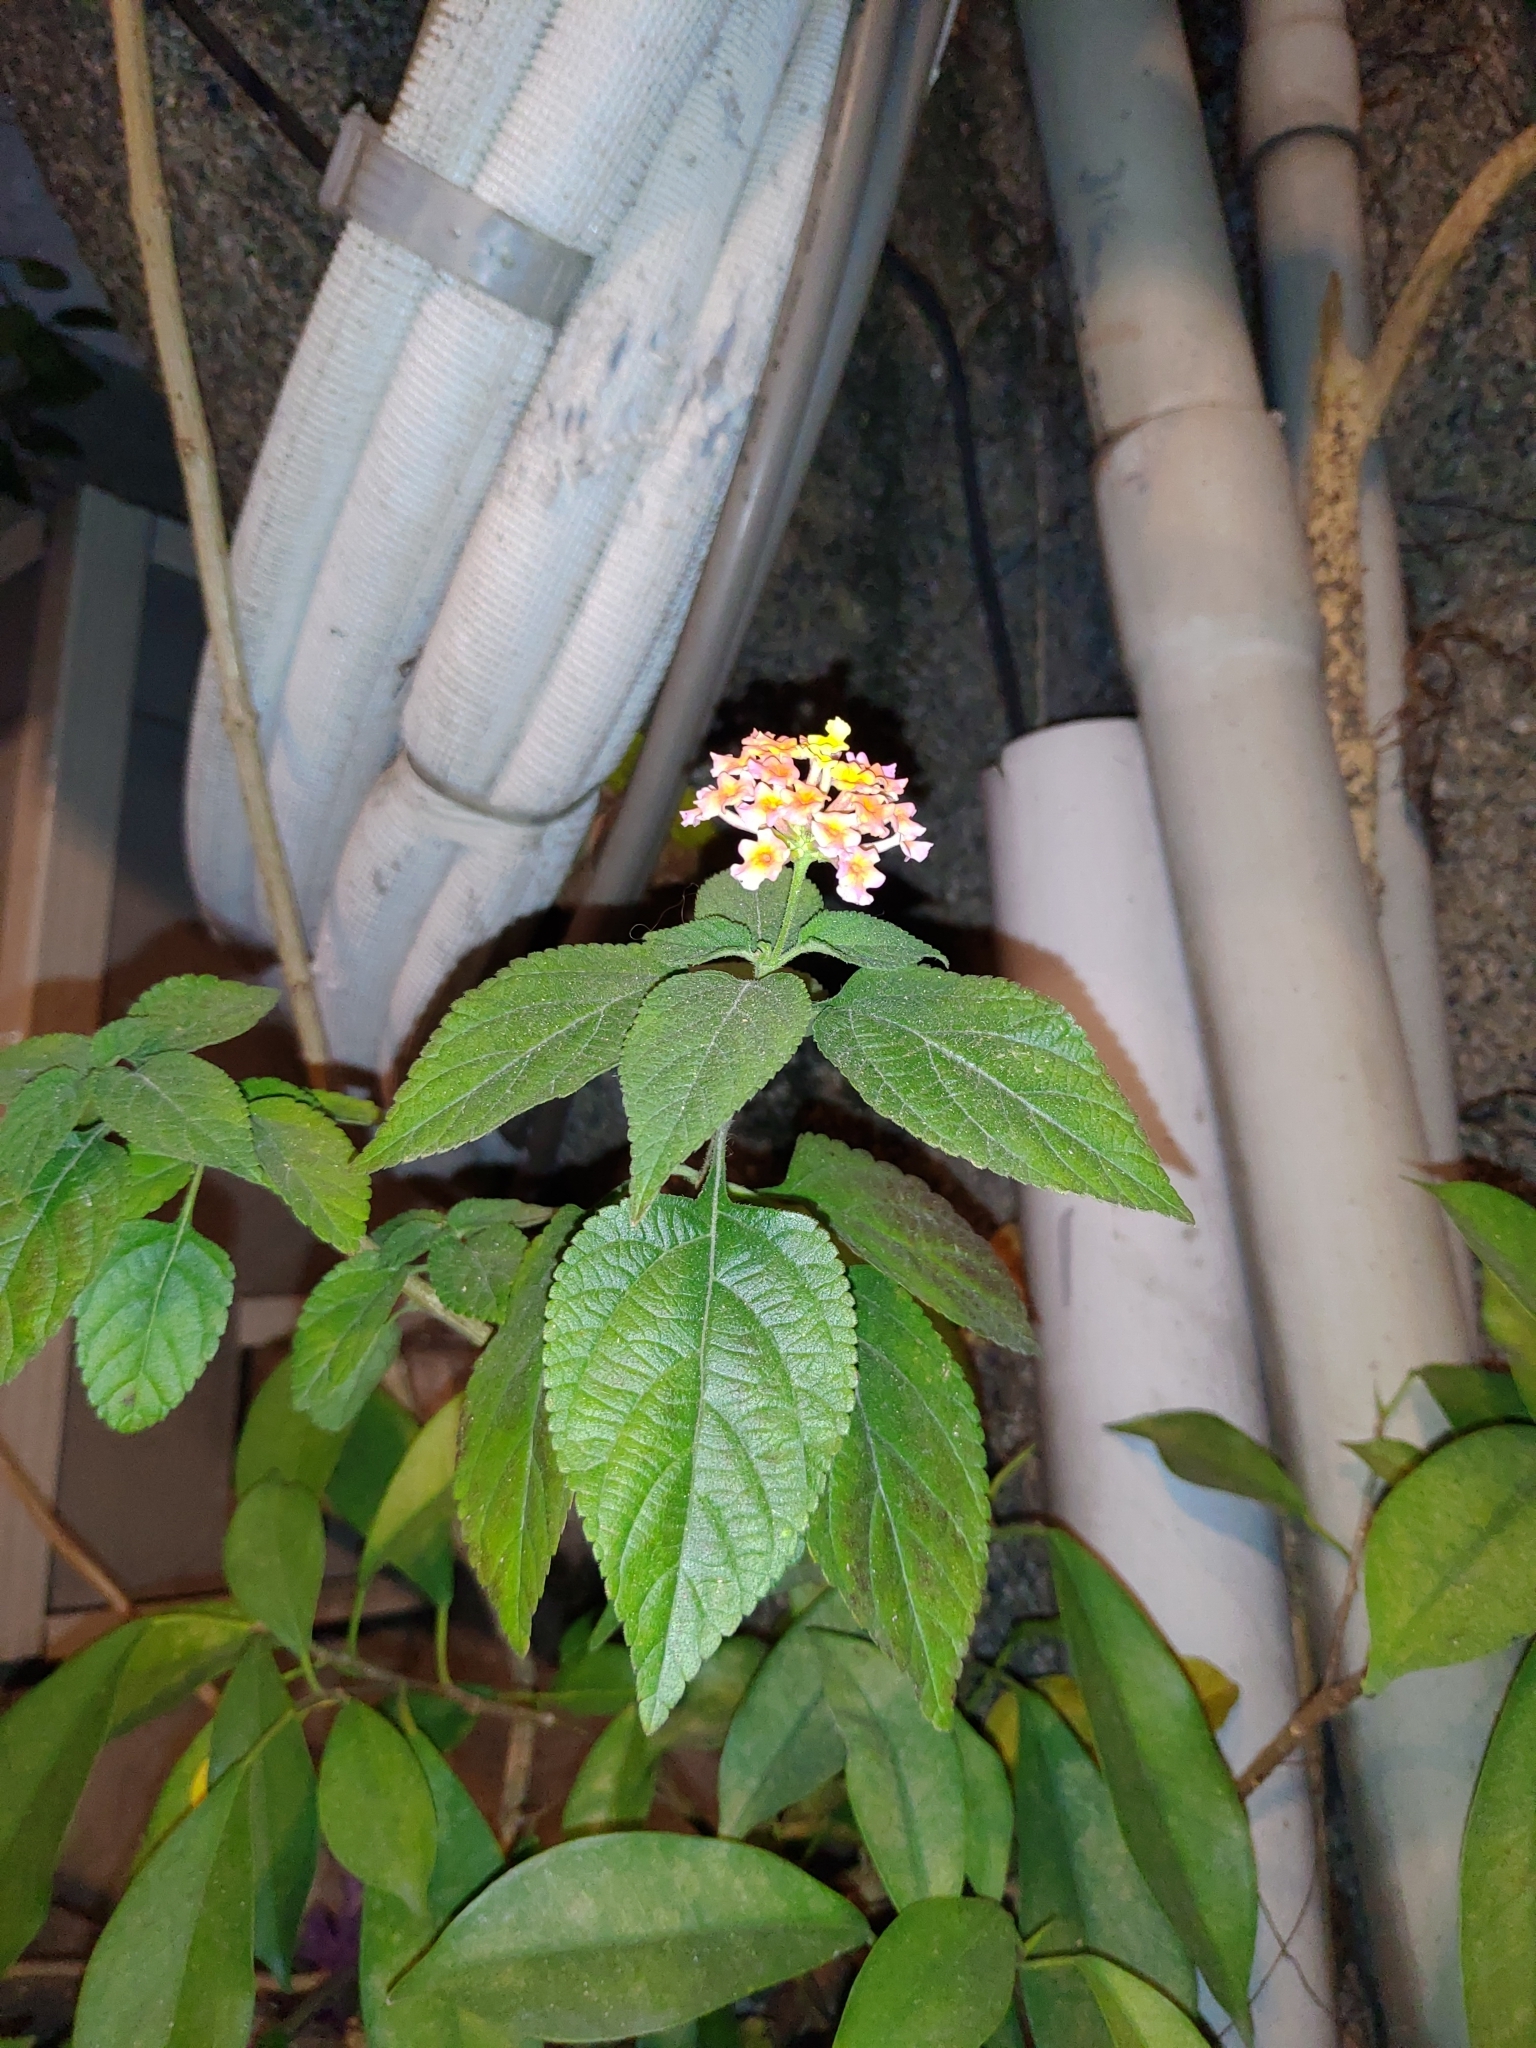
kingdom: Plantae
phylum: Tracheophyta
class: Magnoliopsida
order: Lamiales
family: Verbenaceae
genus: Lantana
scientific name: Lantana camara
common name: Lantana
